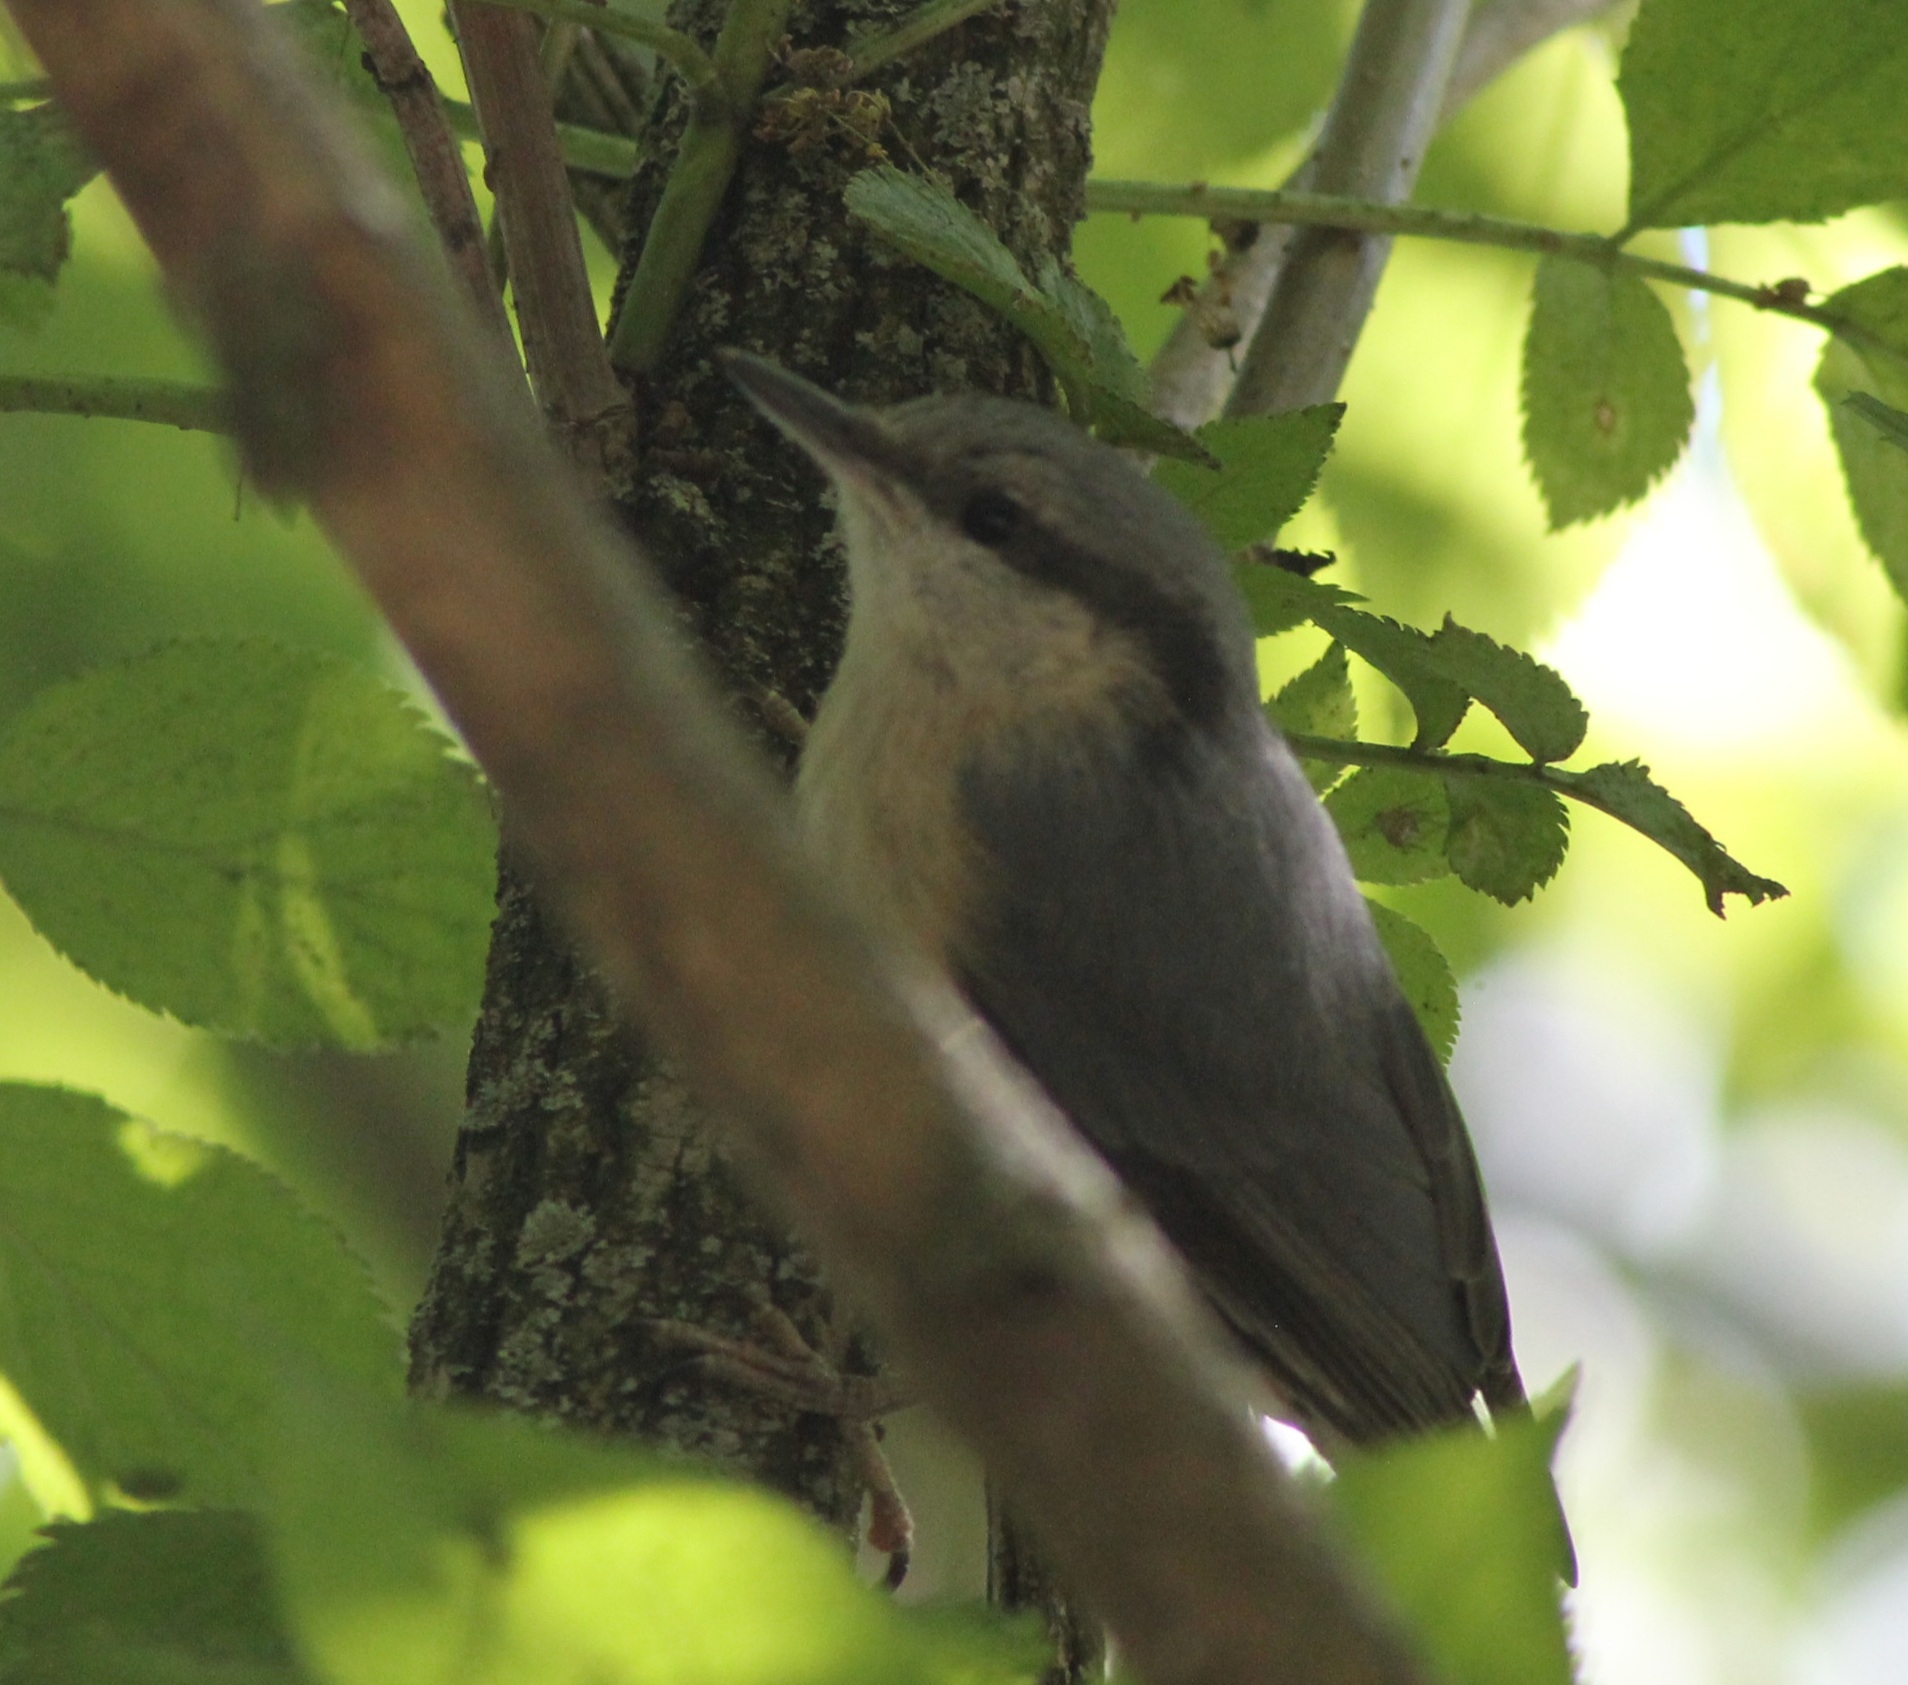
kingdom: Animalia
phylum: Chordata
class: Aves
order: Passeriformes
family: Sittidae
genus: Sitta
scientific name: Sitta europaea
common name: Eurasian nuthatch
